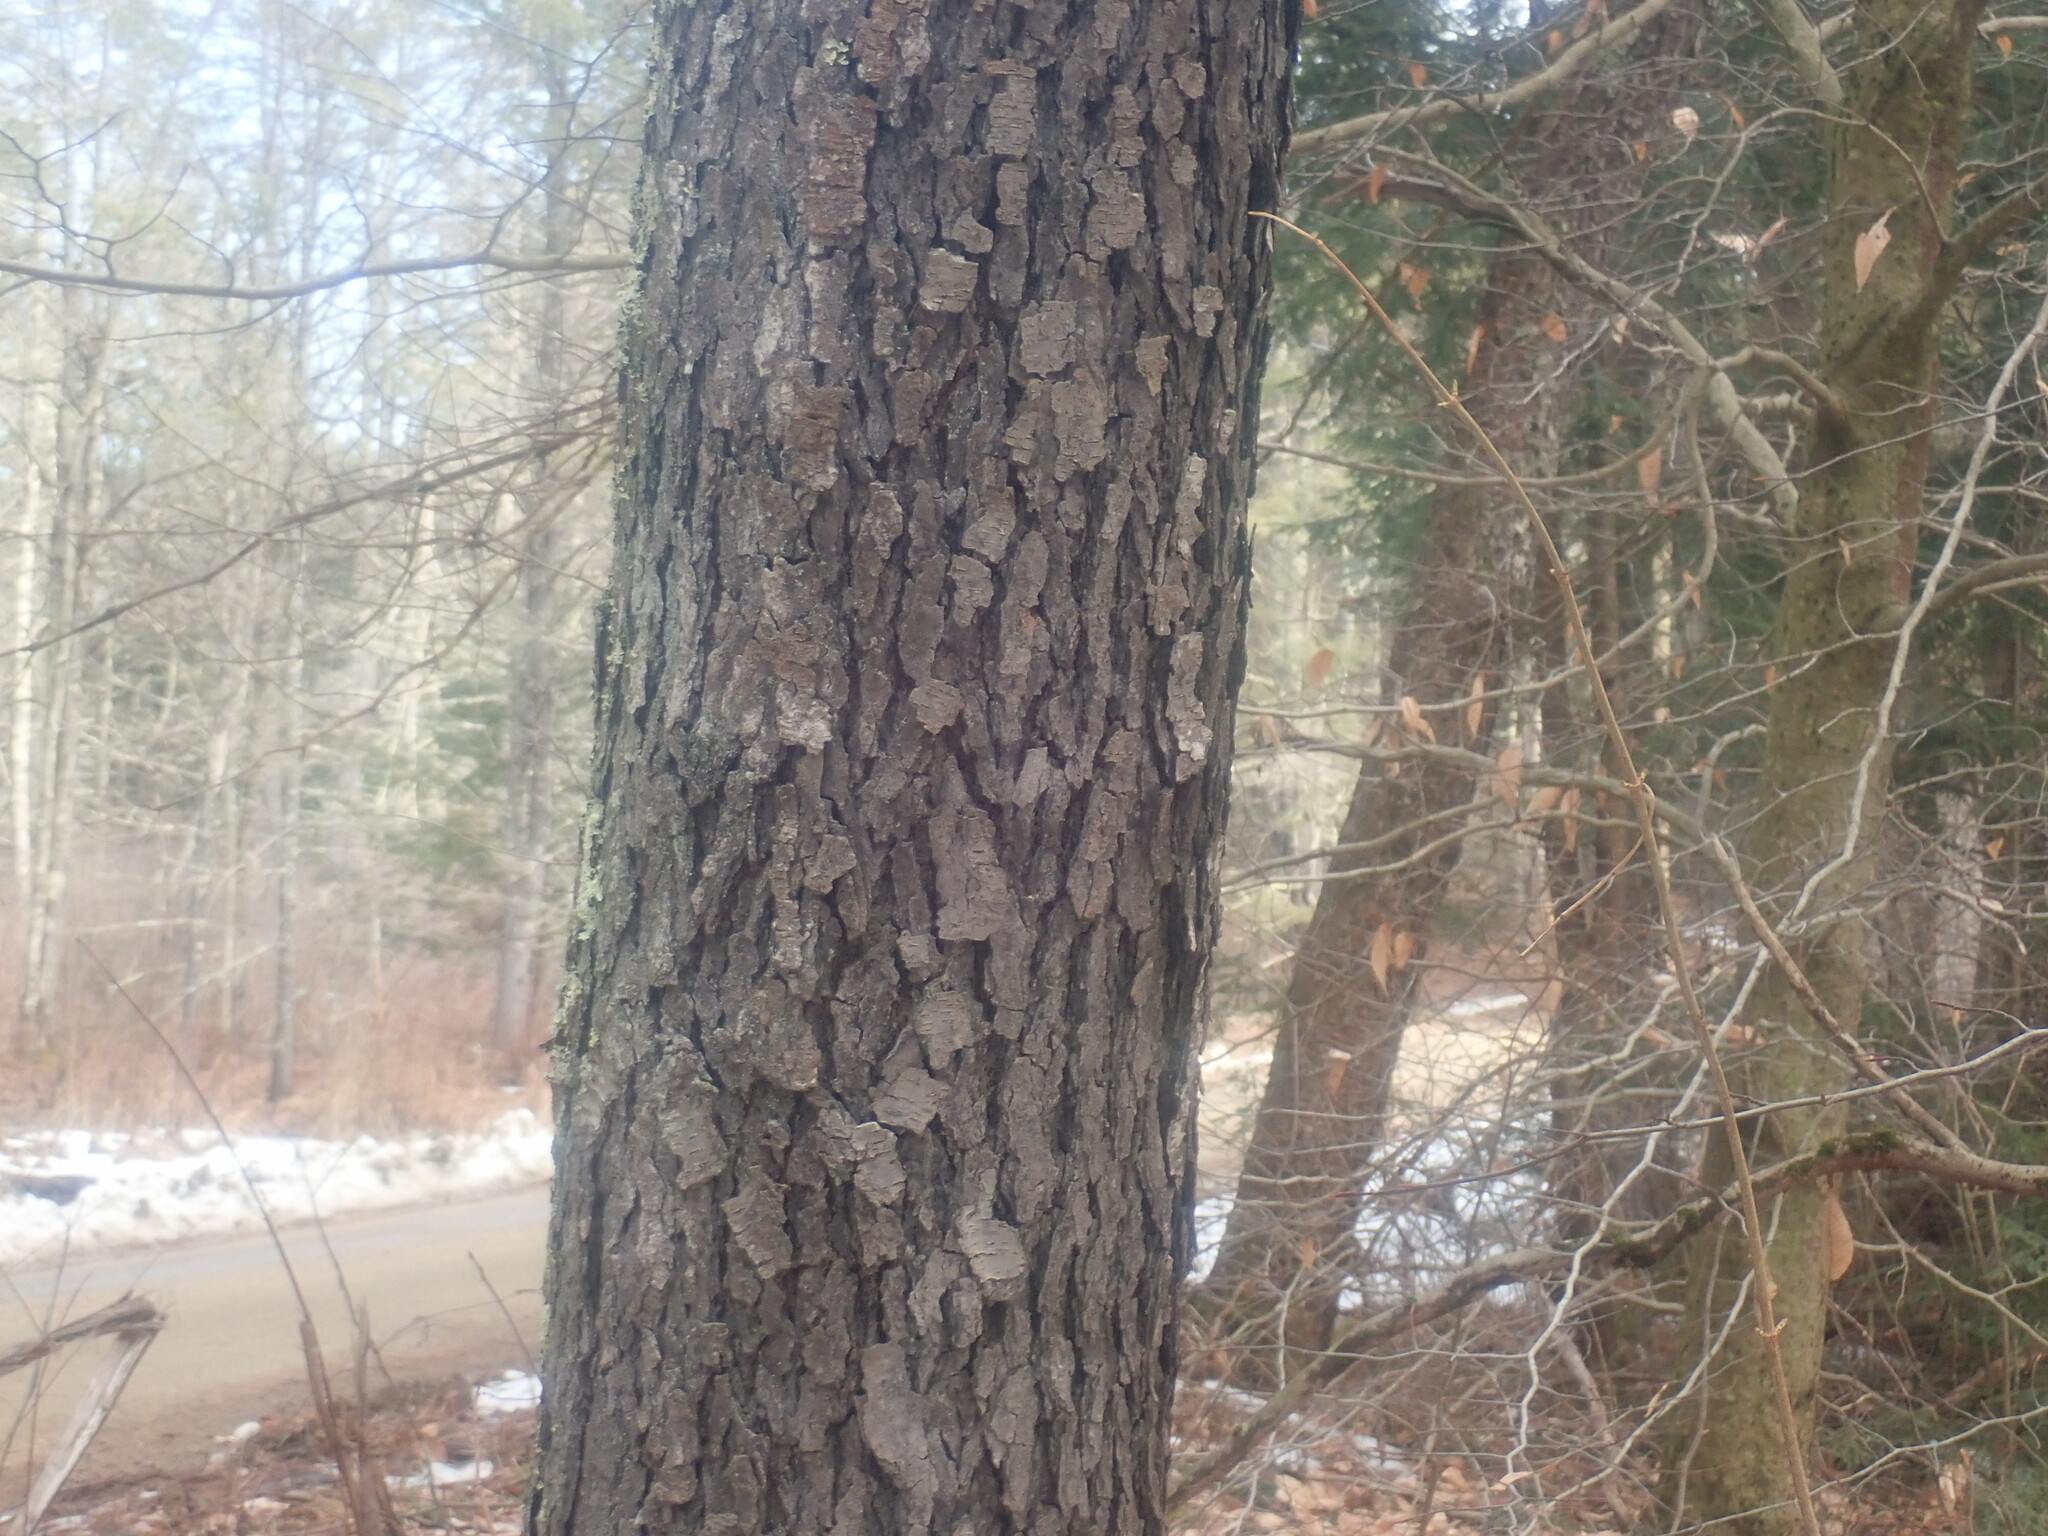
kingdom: Plantae
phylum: Tracheophyta
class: Magnoliopsida
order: Rosales
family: Rosaceae
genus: Prunus
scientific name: Prunus serotina
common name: Black cherry
